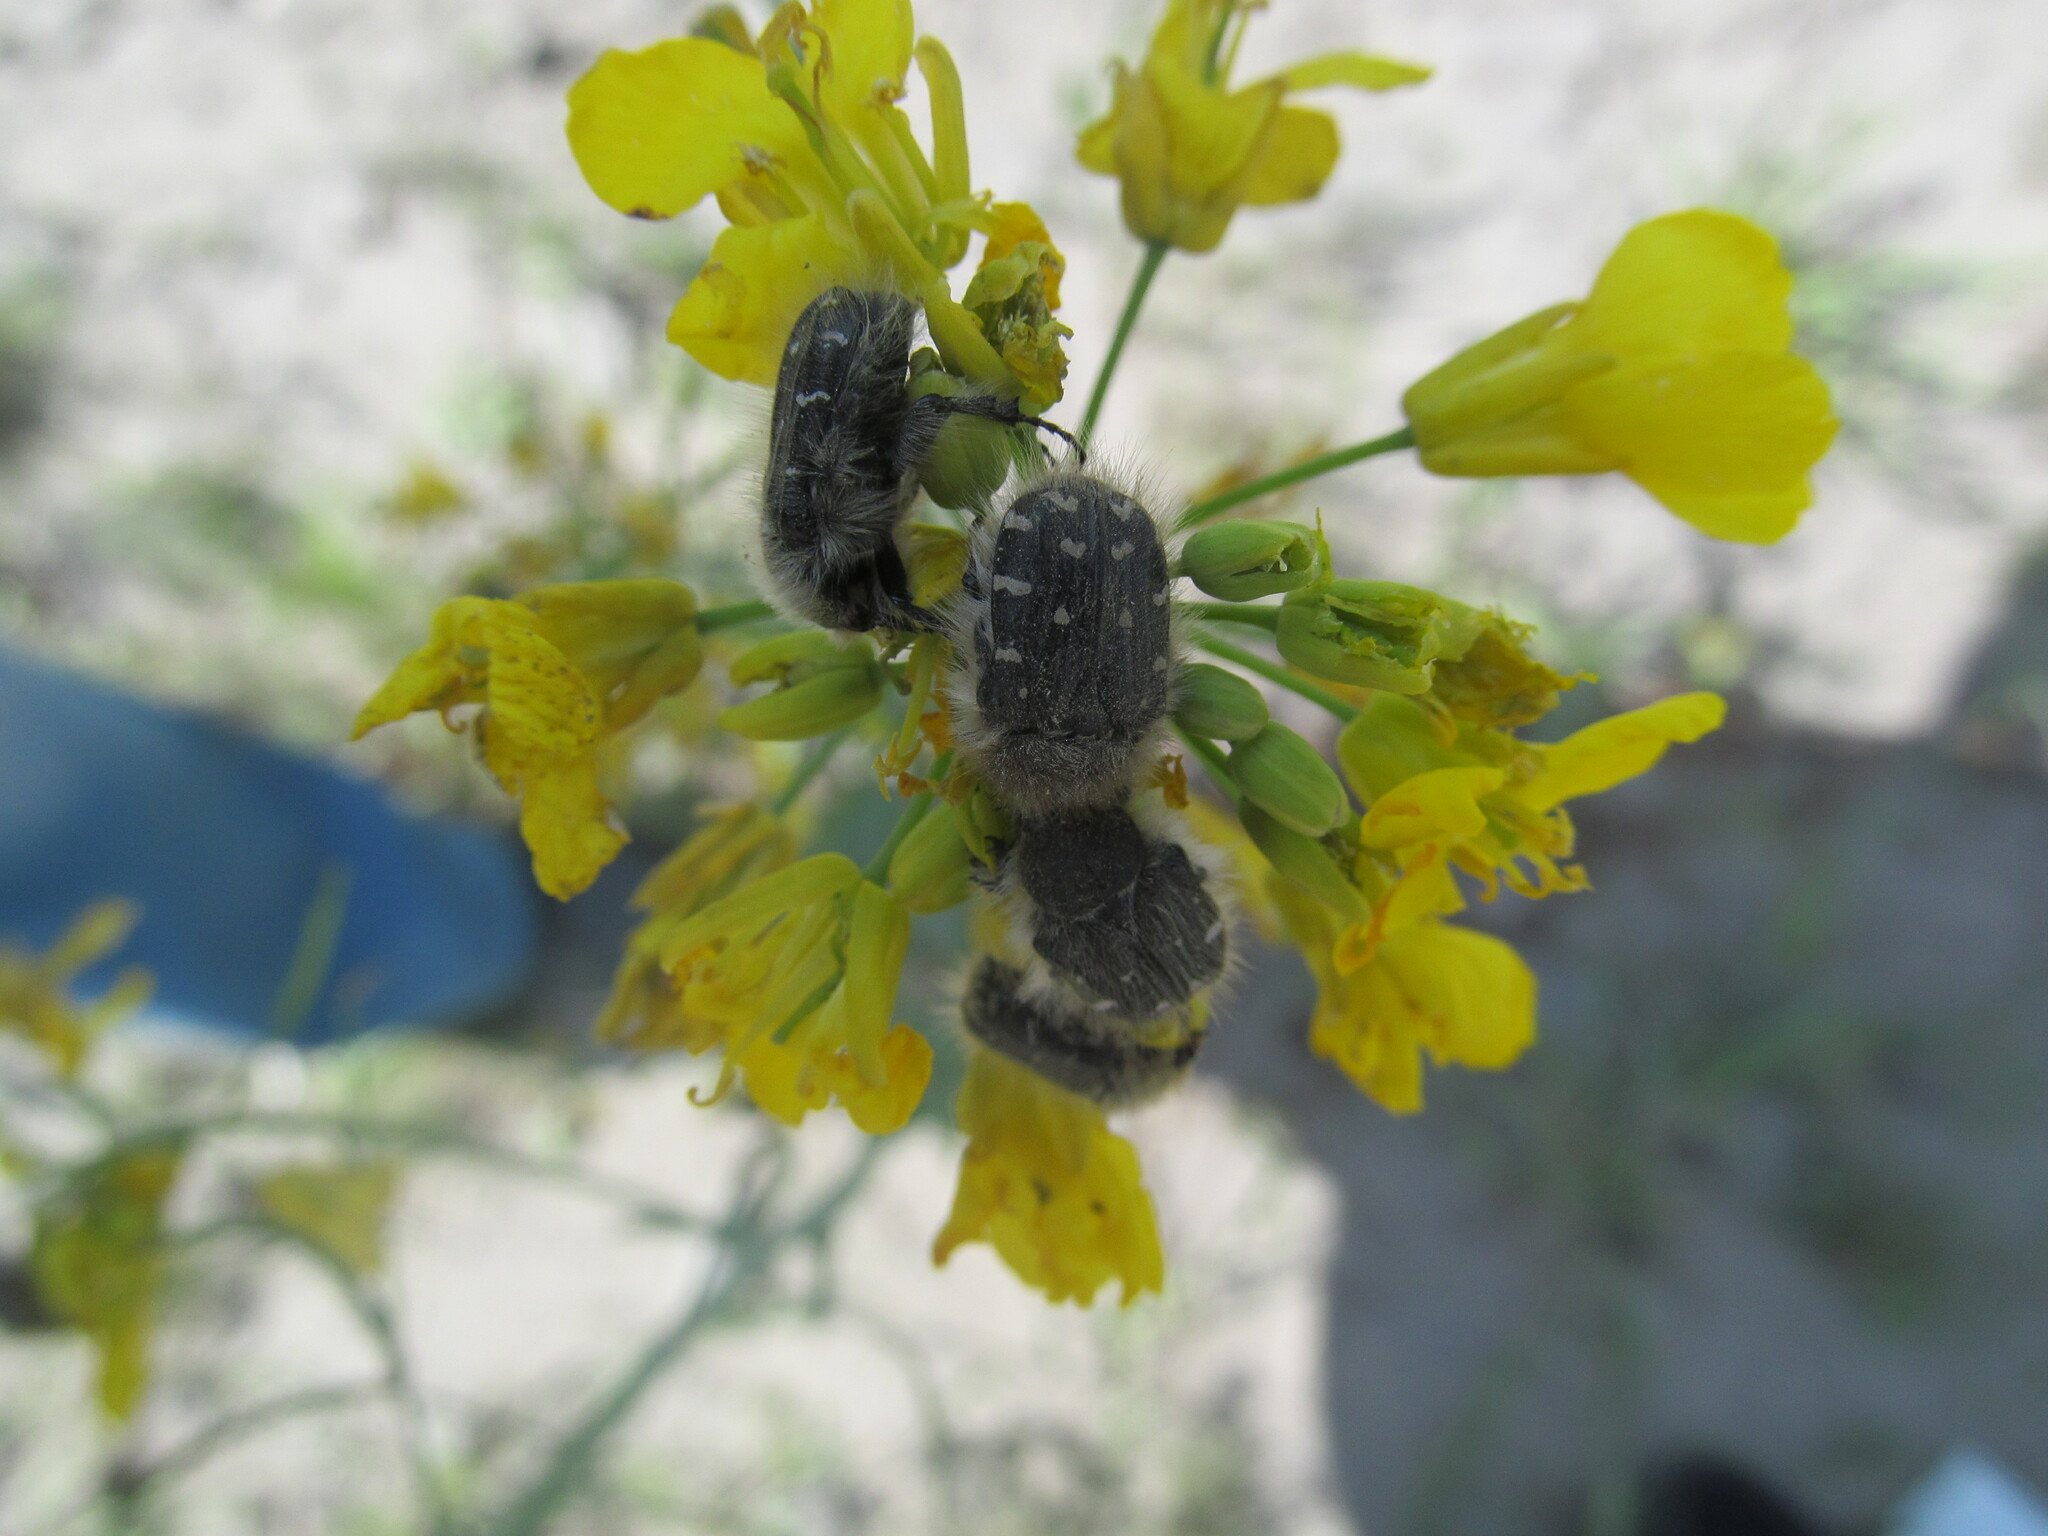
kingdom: Animalia
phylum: Arthropoda
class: Insecta
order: Coleoptera
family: Scarabaeidae
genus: Tropinota
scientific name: Tropinota hirta
